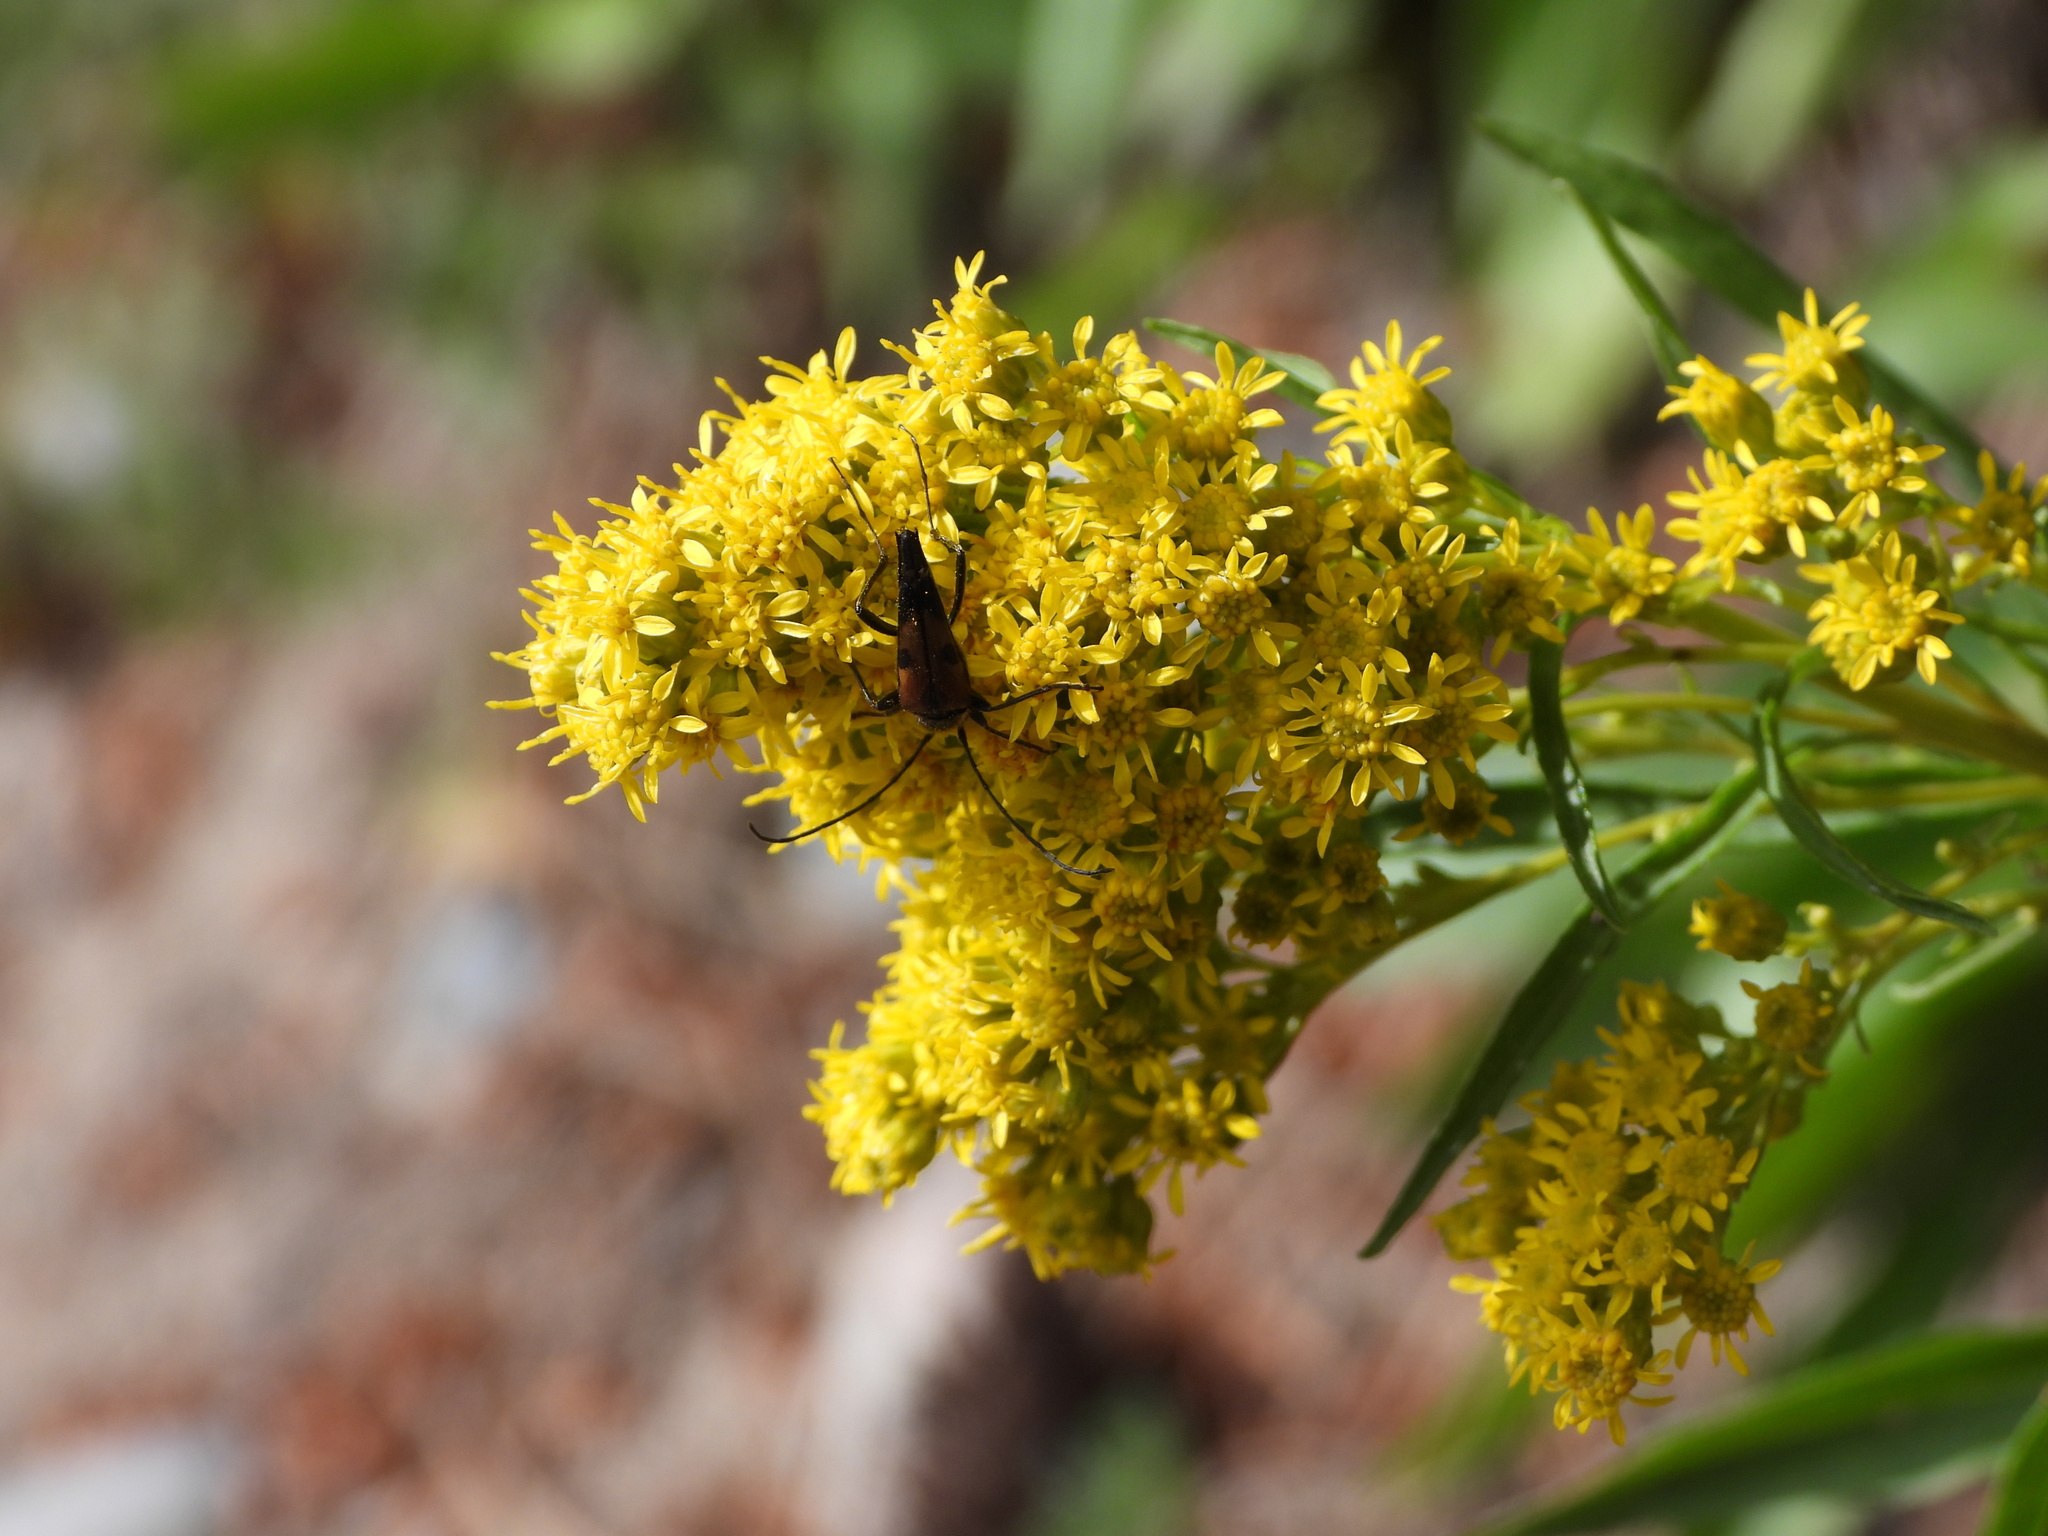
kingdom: Animalia
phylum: Arthropoda
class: Insecta
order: Coleoptera
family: Cerambycidae
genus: Etorofus
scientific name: Etorofus
